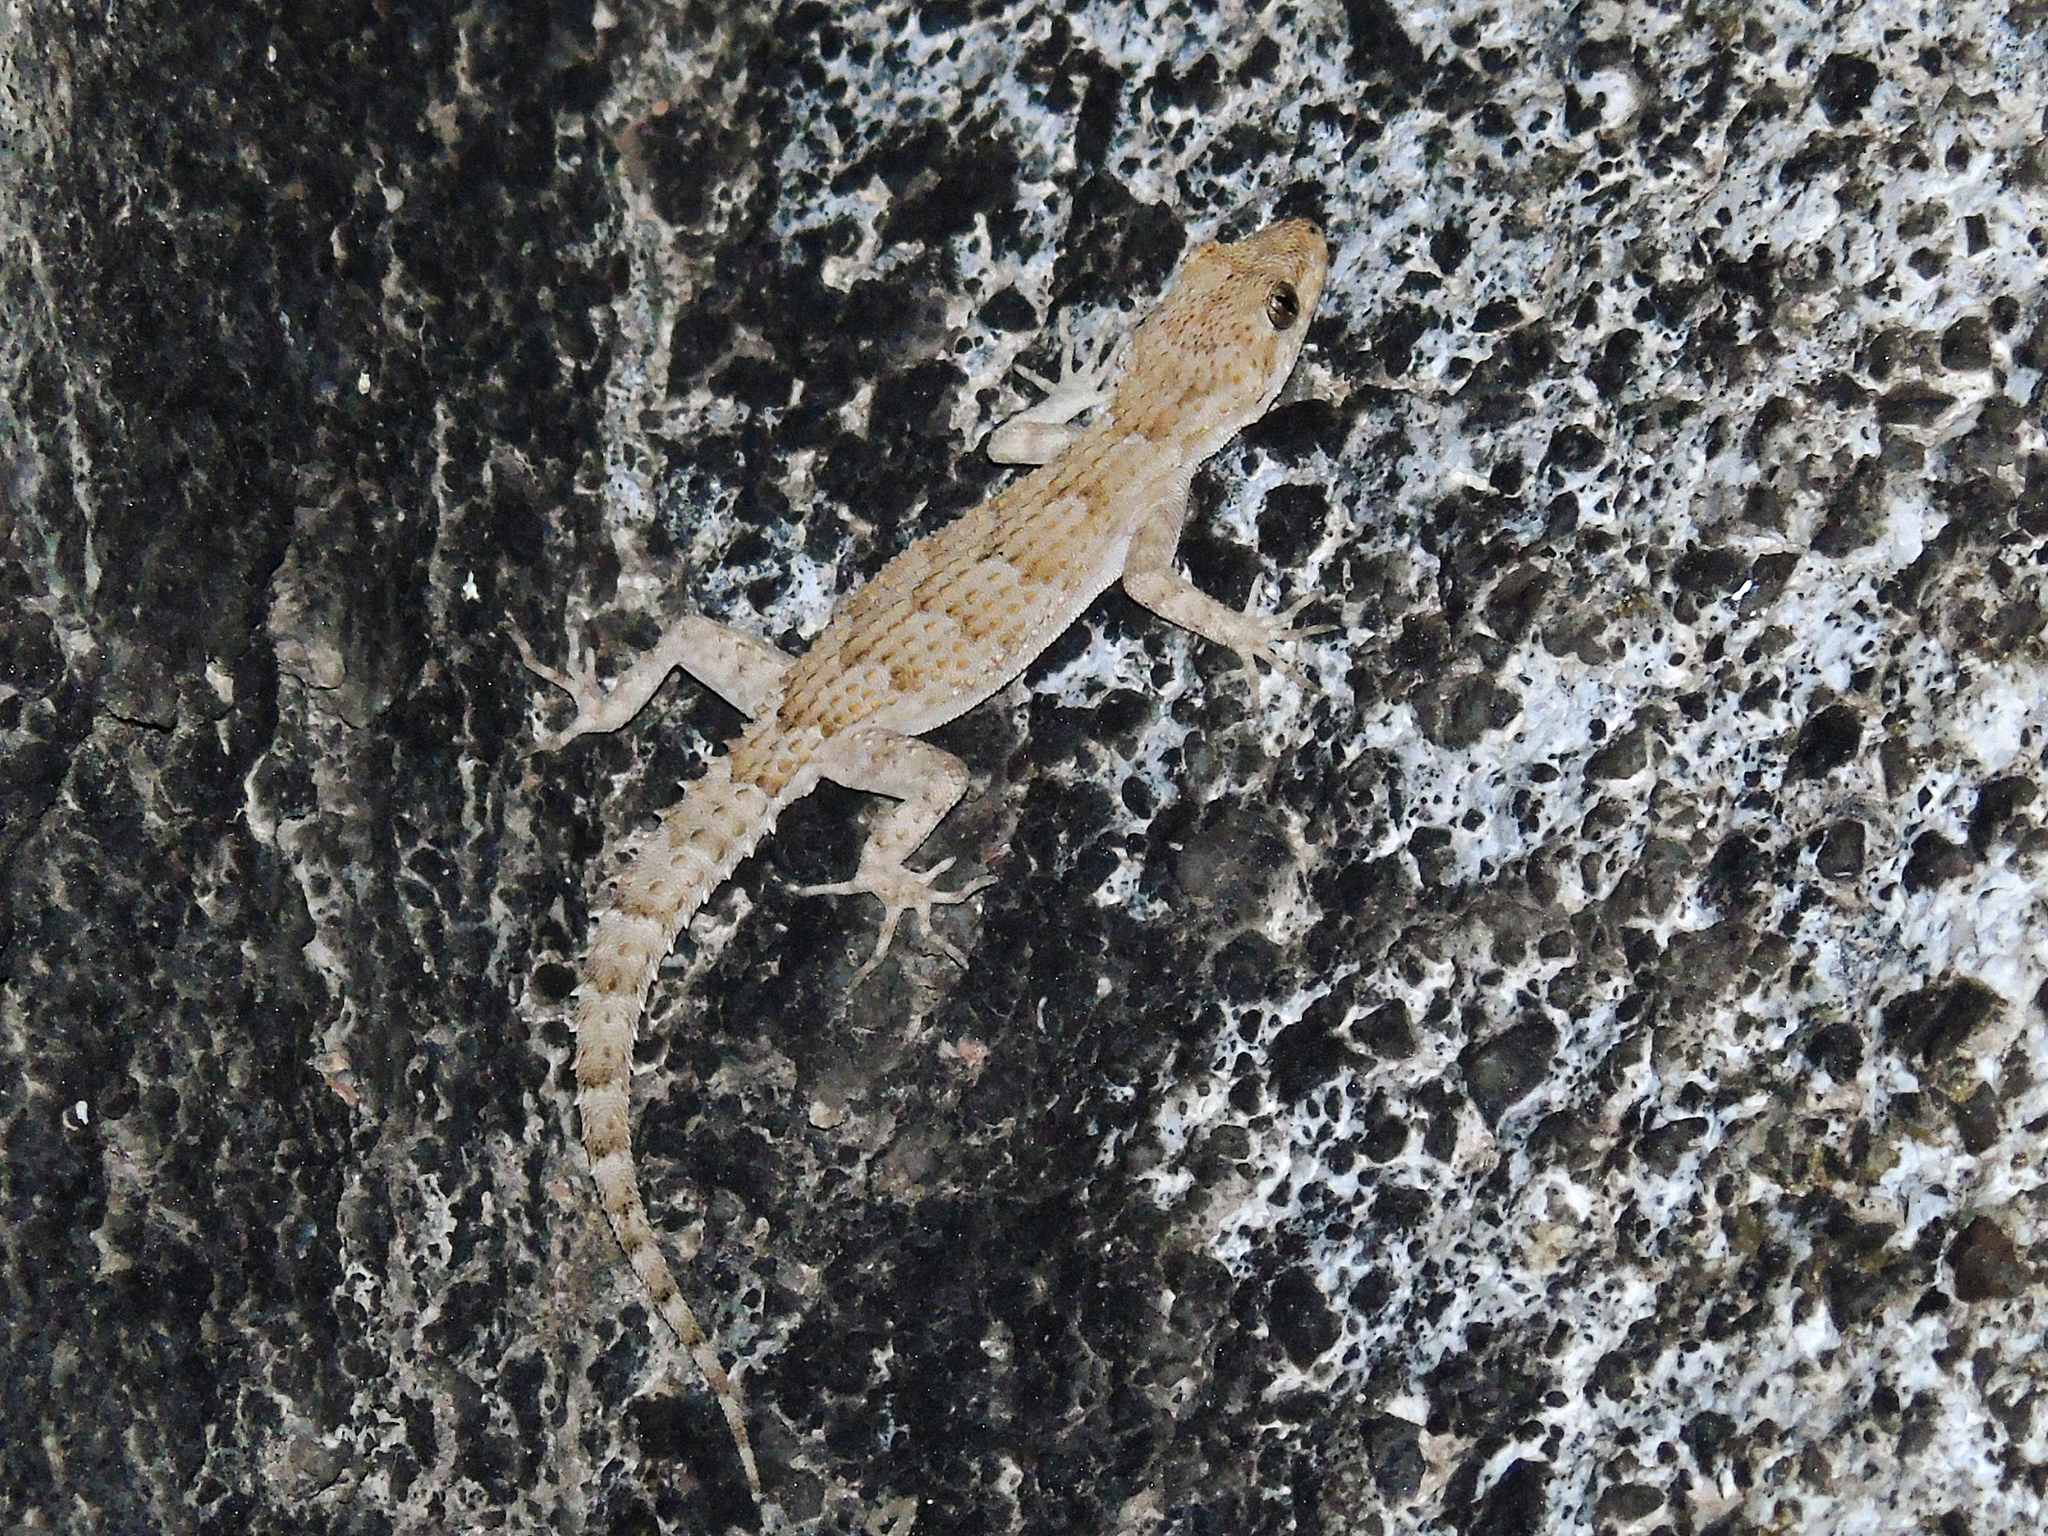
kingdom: Animalia
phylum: Chordata
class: Squamata
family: Gekkonidae
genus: Mediodactylus
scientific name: Mediodactylus kotschyi
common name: Kotschy's gecko
